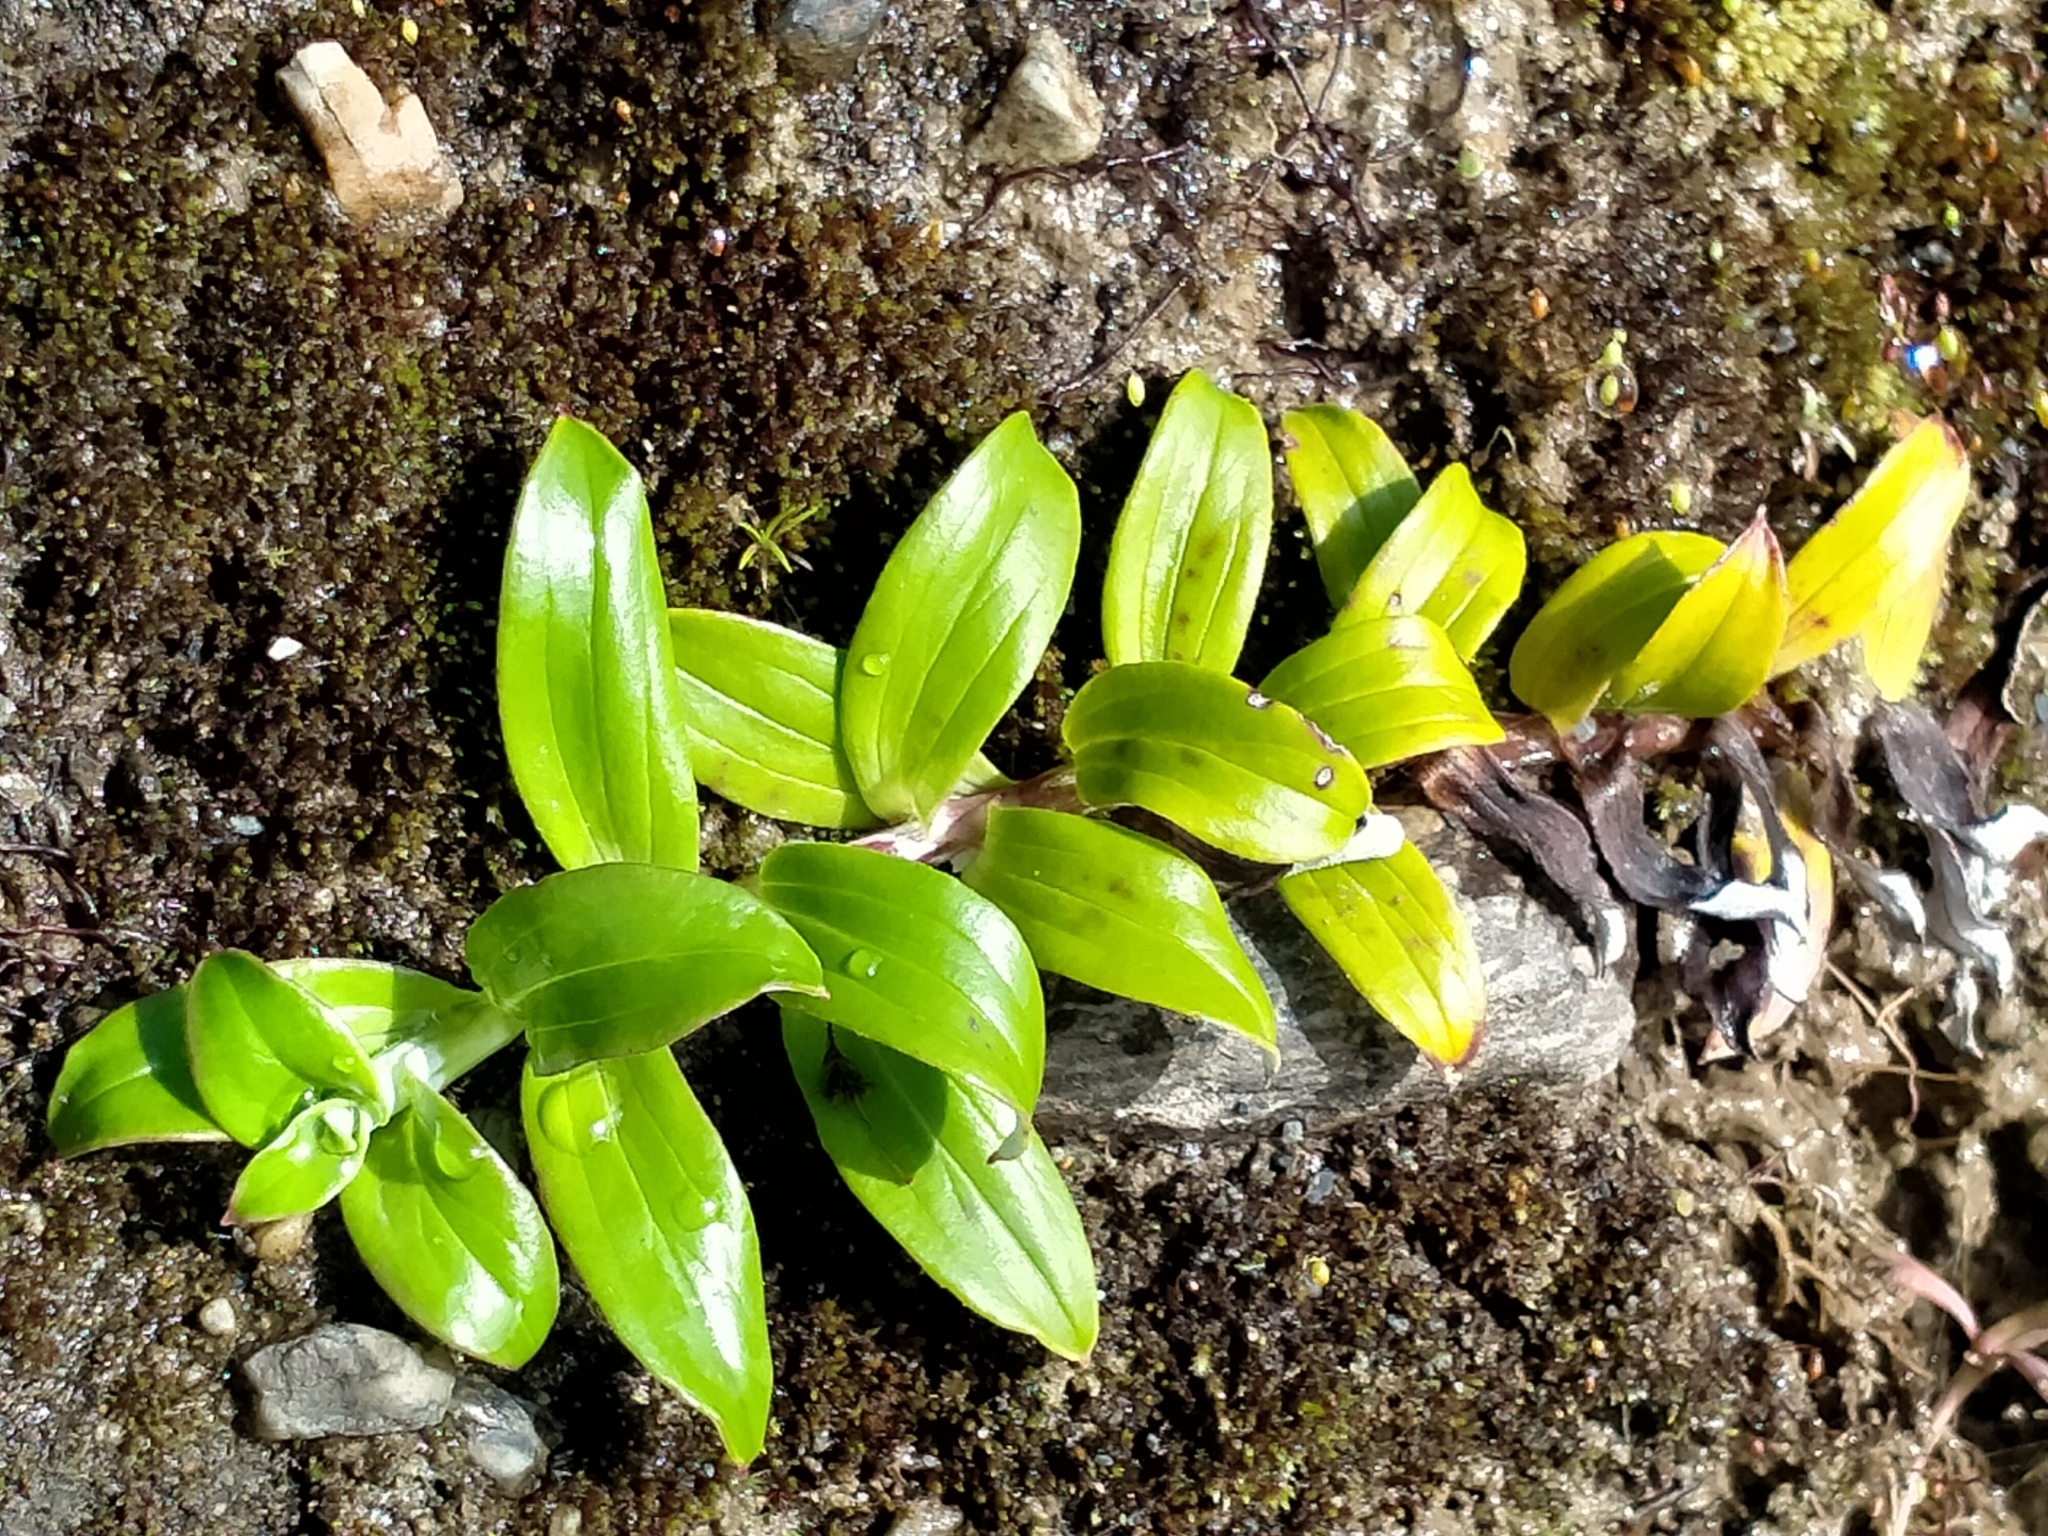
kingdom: Plantae
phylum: Tracheophyta
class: Magnoliopsida
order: Asterales
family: Asteraceae
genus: Anaphalioides
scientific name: Anaphalioides trinervis
